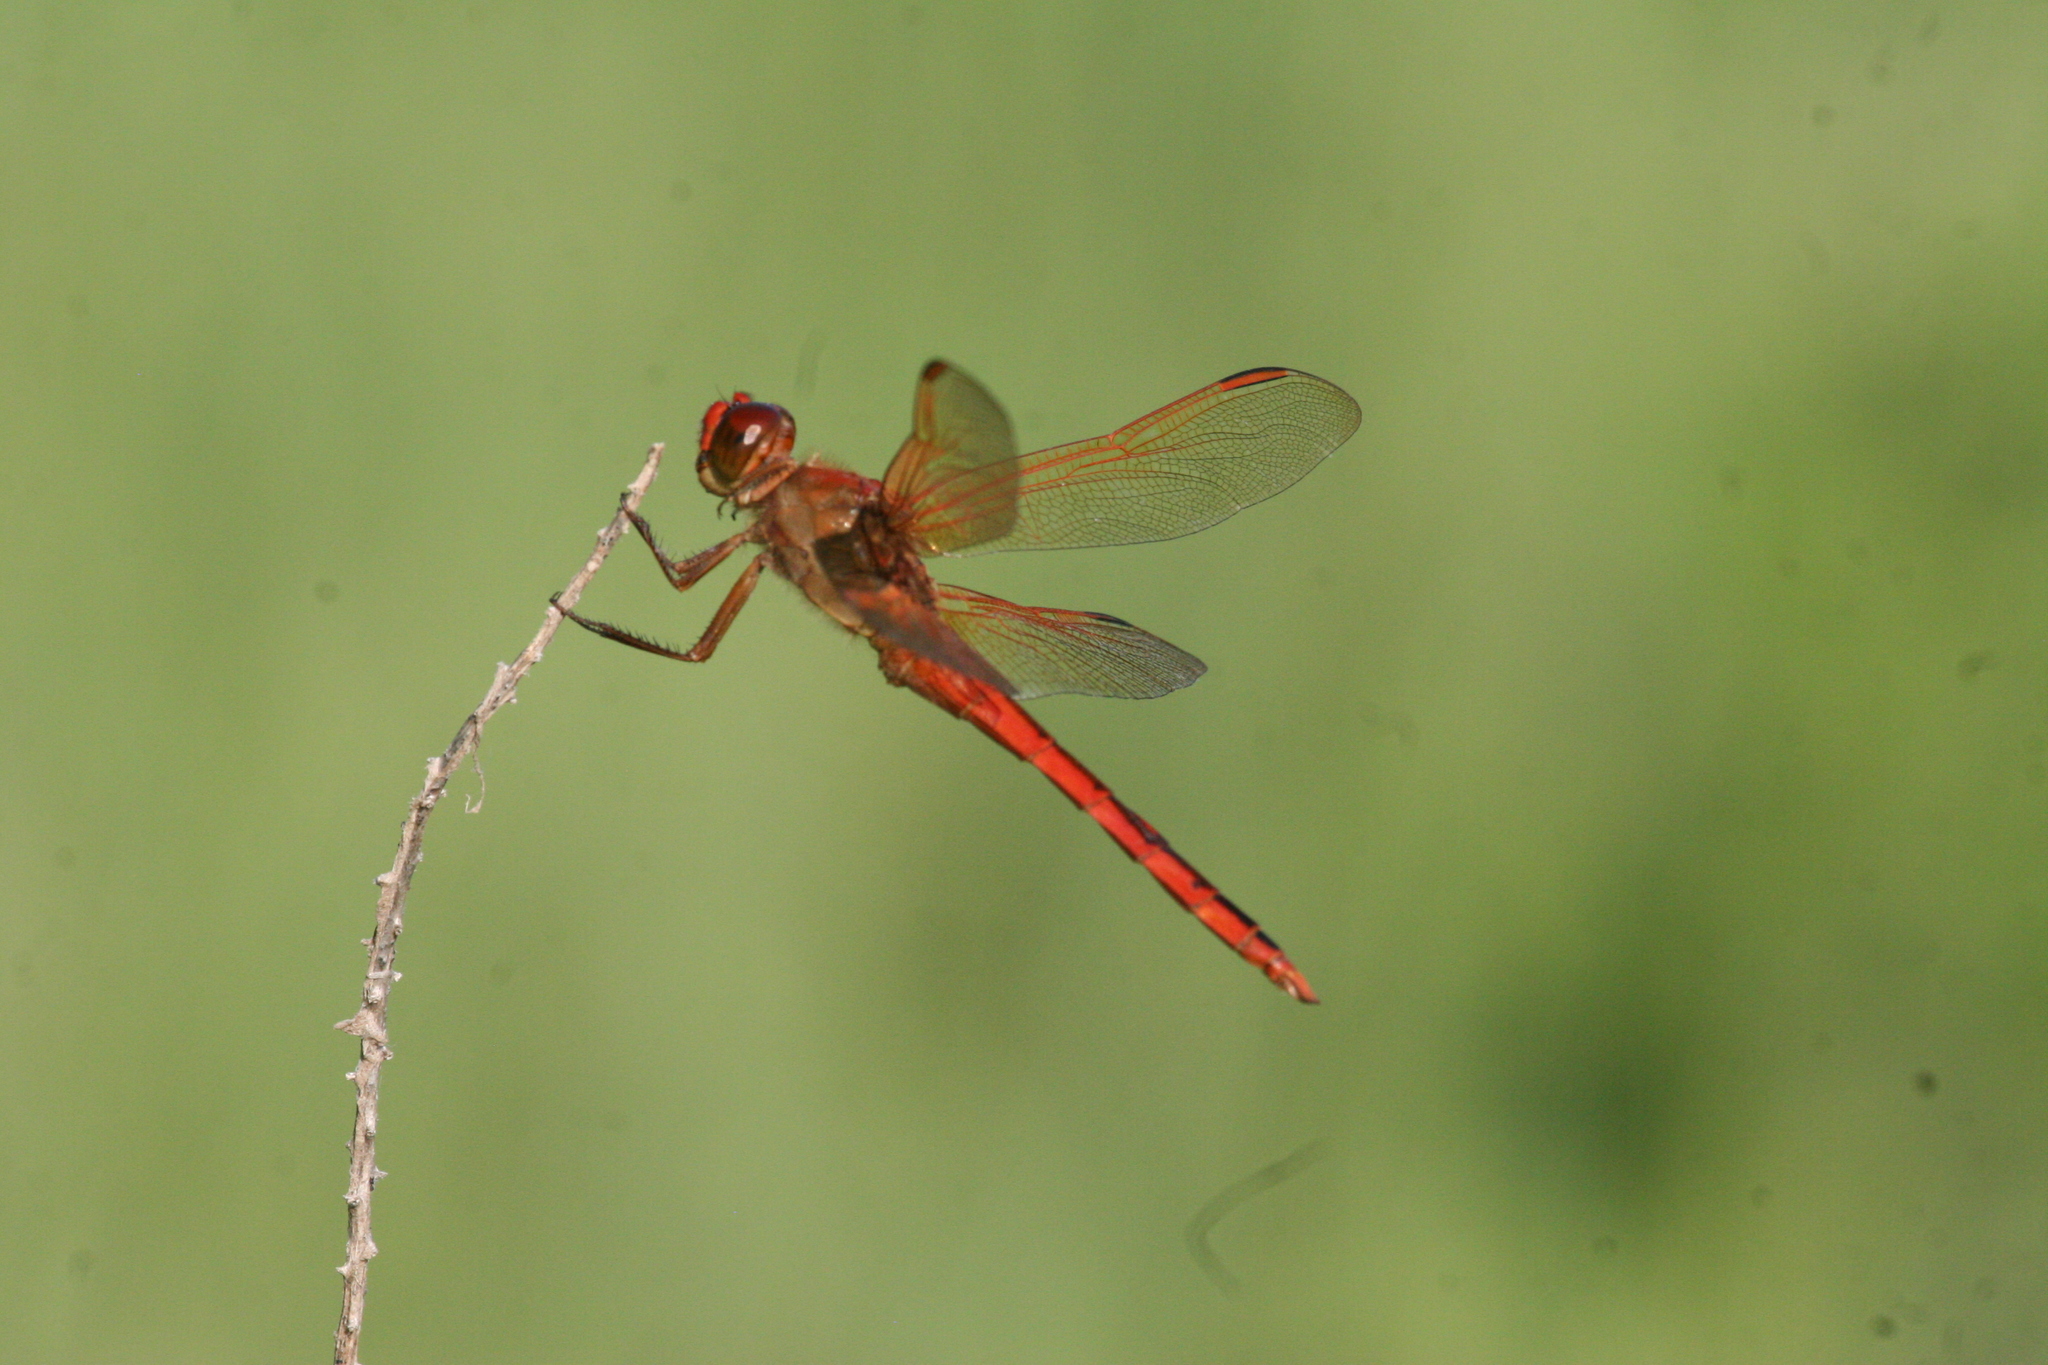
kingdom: Animalia
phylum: Arthropoda
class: Insecta
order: Odonata
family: Libellulidae
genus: Libellula
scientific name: Libellula needhami
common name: Needham's skimmer
